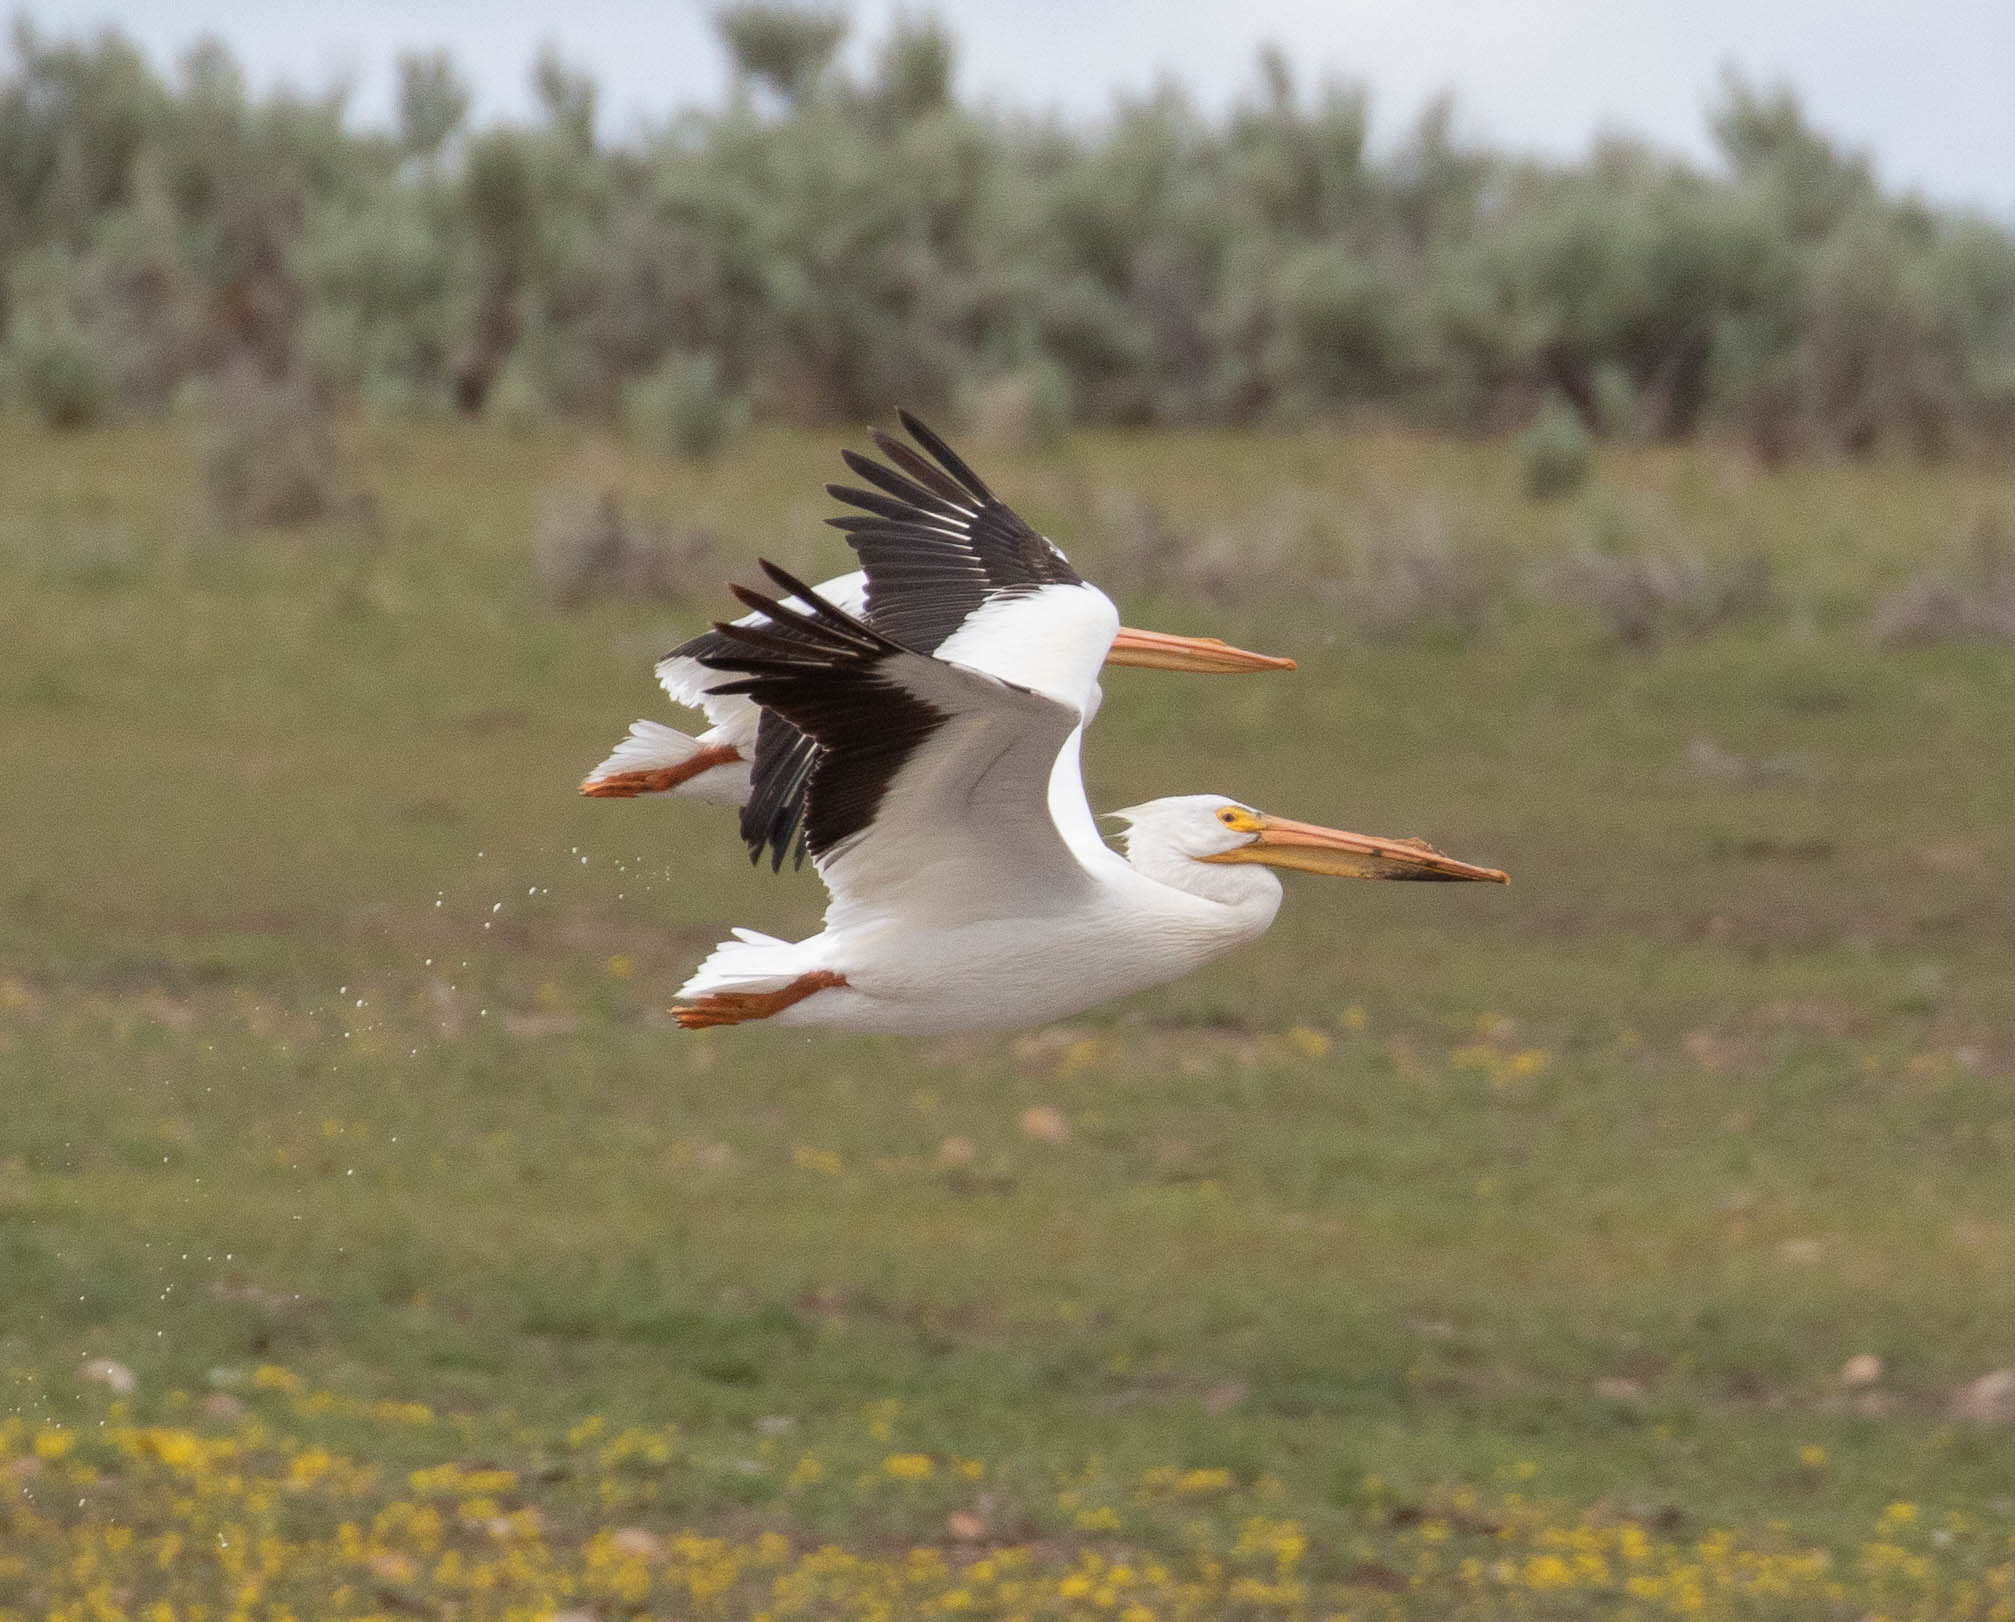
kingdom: Animalia
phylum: Chordata
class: Aves
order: Pelecaniformes
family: Pelecanidae
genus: Pelecanus
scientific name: Pelecanus erythrorhynchos
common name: American white pelican
